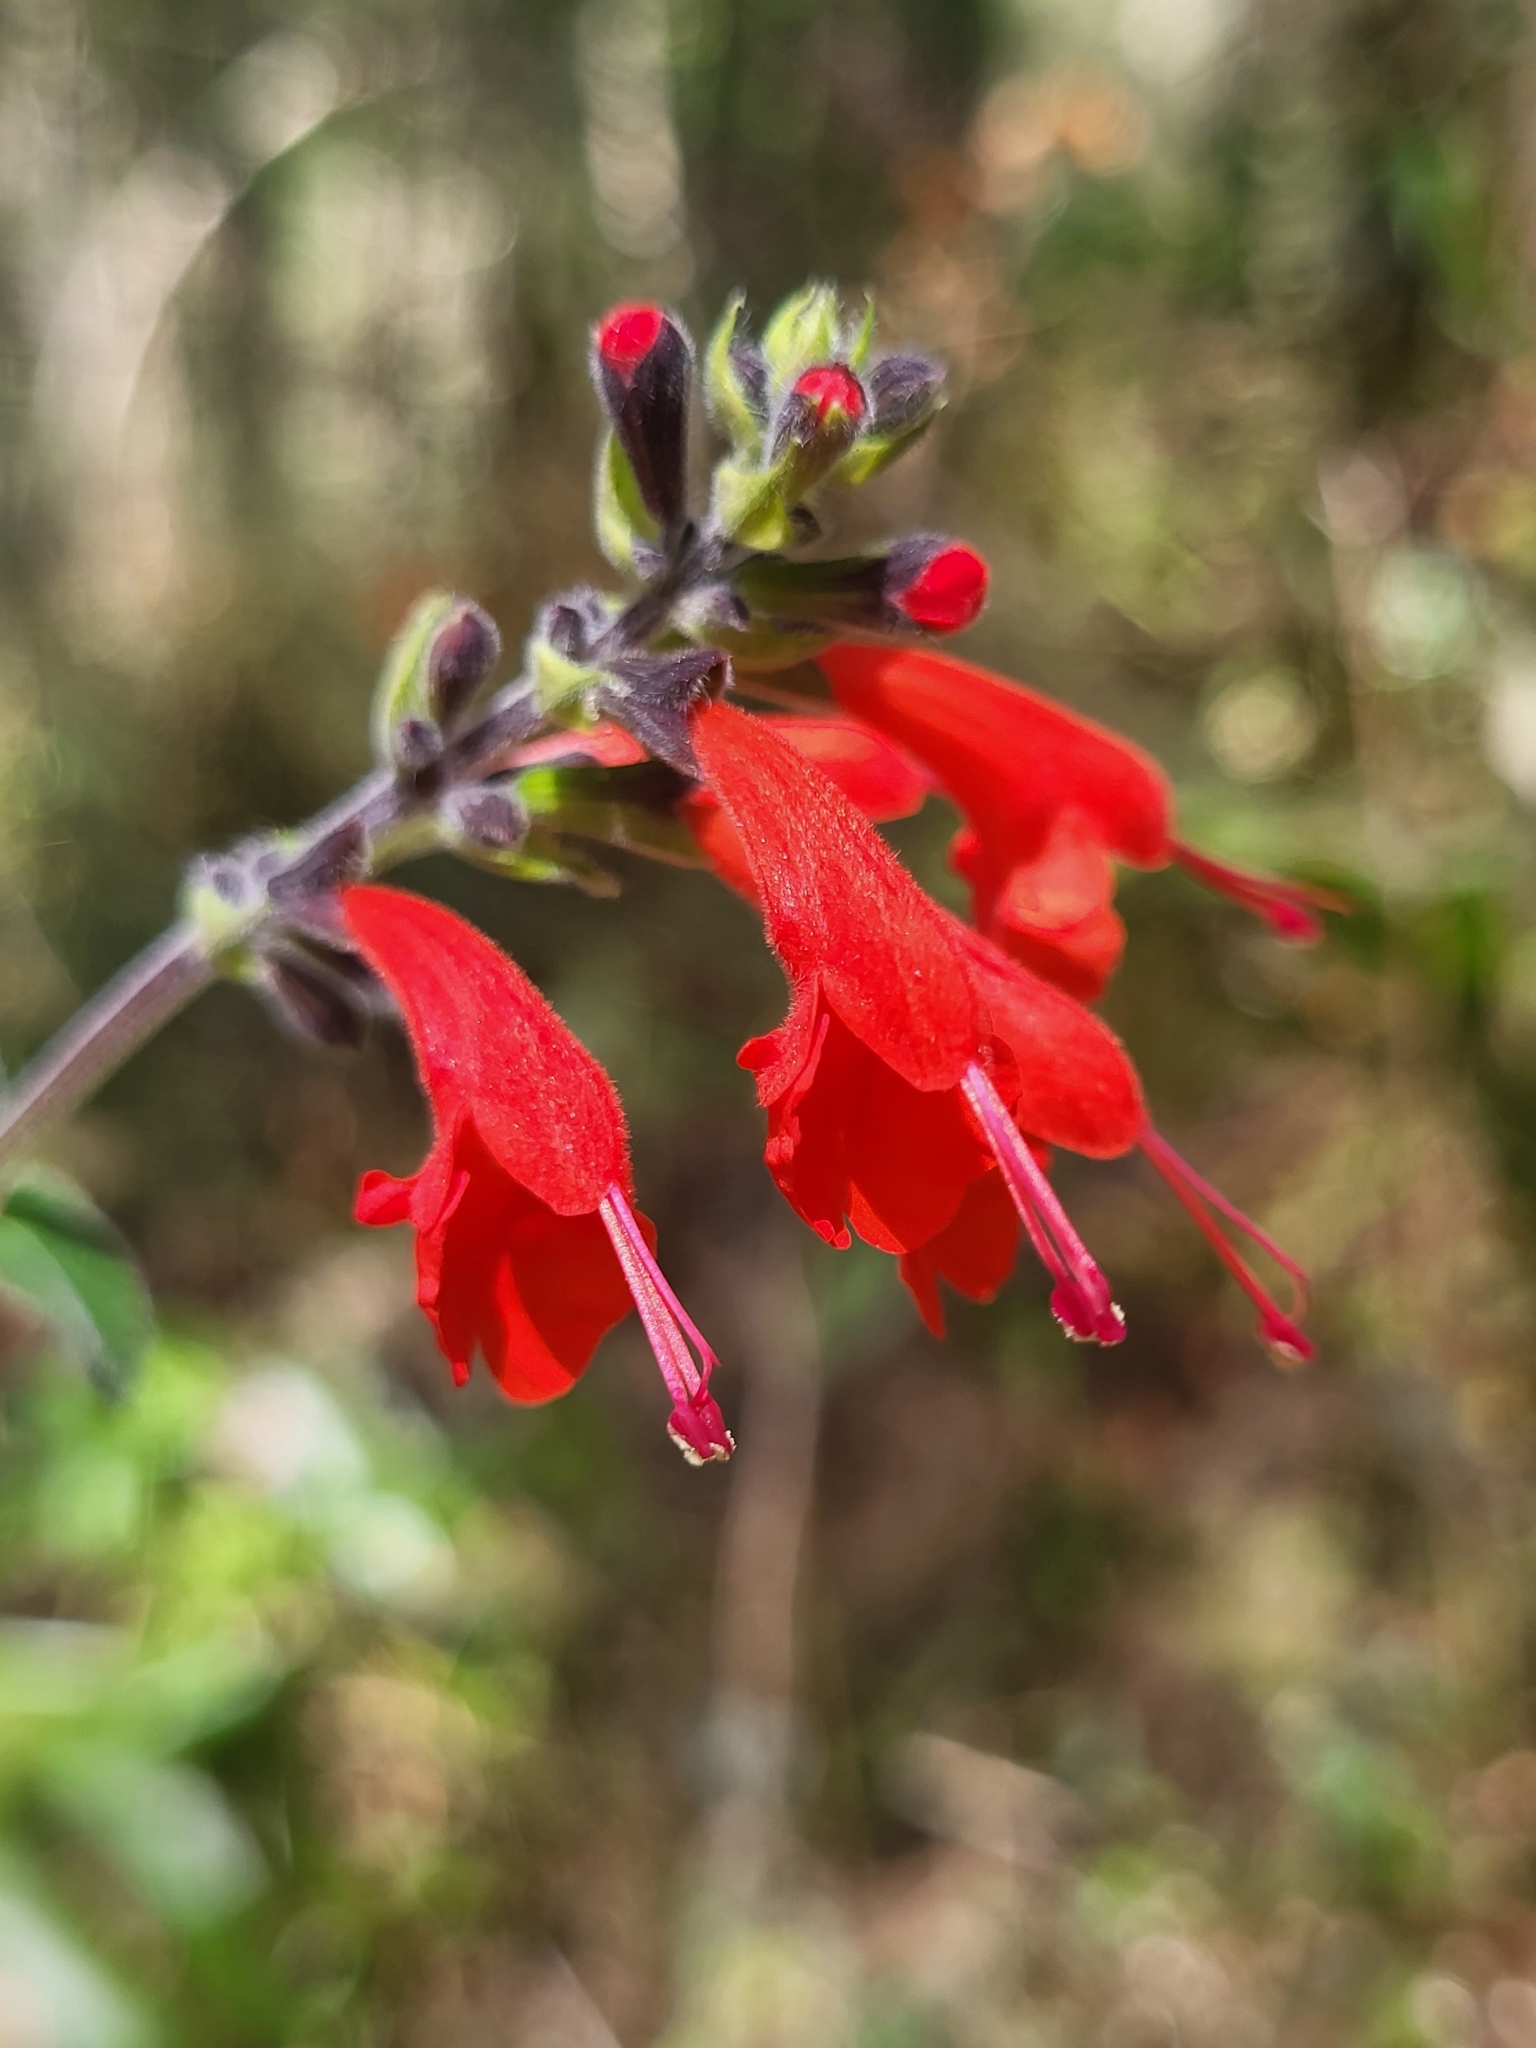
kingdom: Plantae
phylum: Tracheophyta
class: Magnoliopsida
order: Lamiales
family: Lamiaceae
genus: Salvia
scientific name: Salvia coccinea
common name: Blood sage
